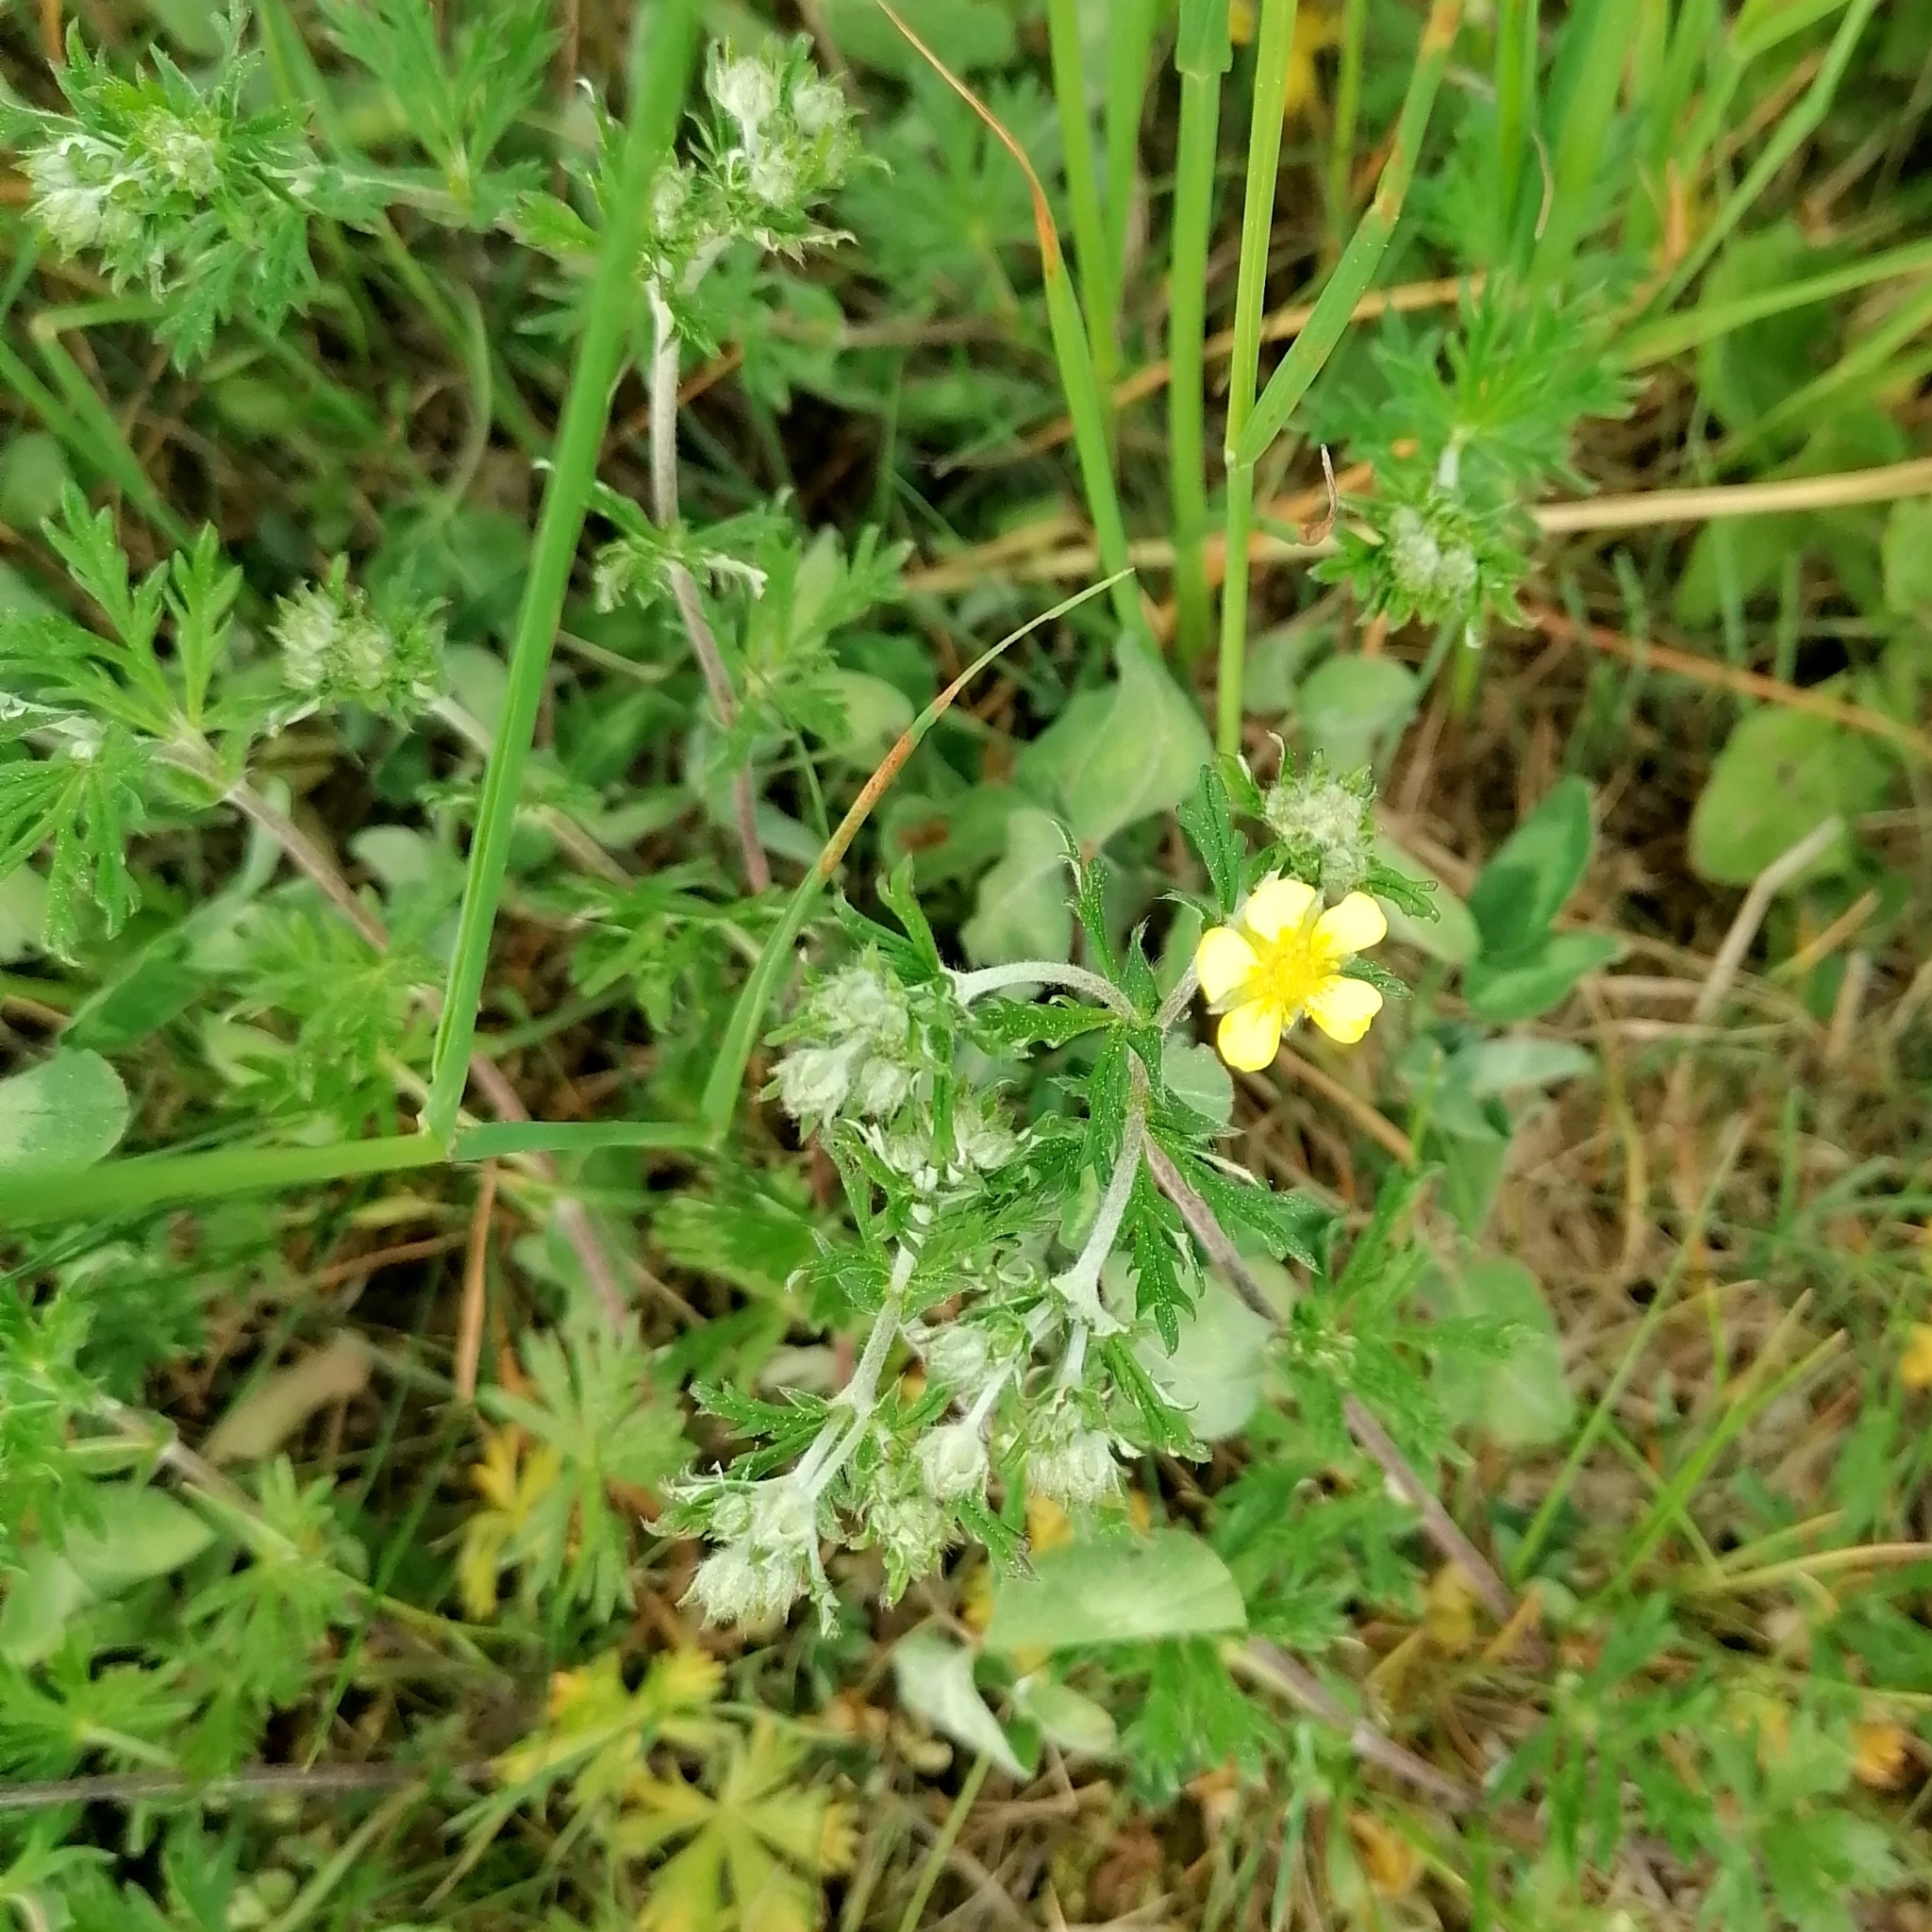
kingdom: Plantae
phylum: Tracheophyta
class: Magnoliopsida
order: Rosales
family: Rosaceae
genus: Potentilla
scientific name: Potentilla argentea
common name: Hoary cinquefoil
